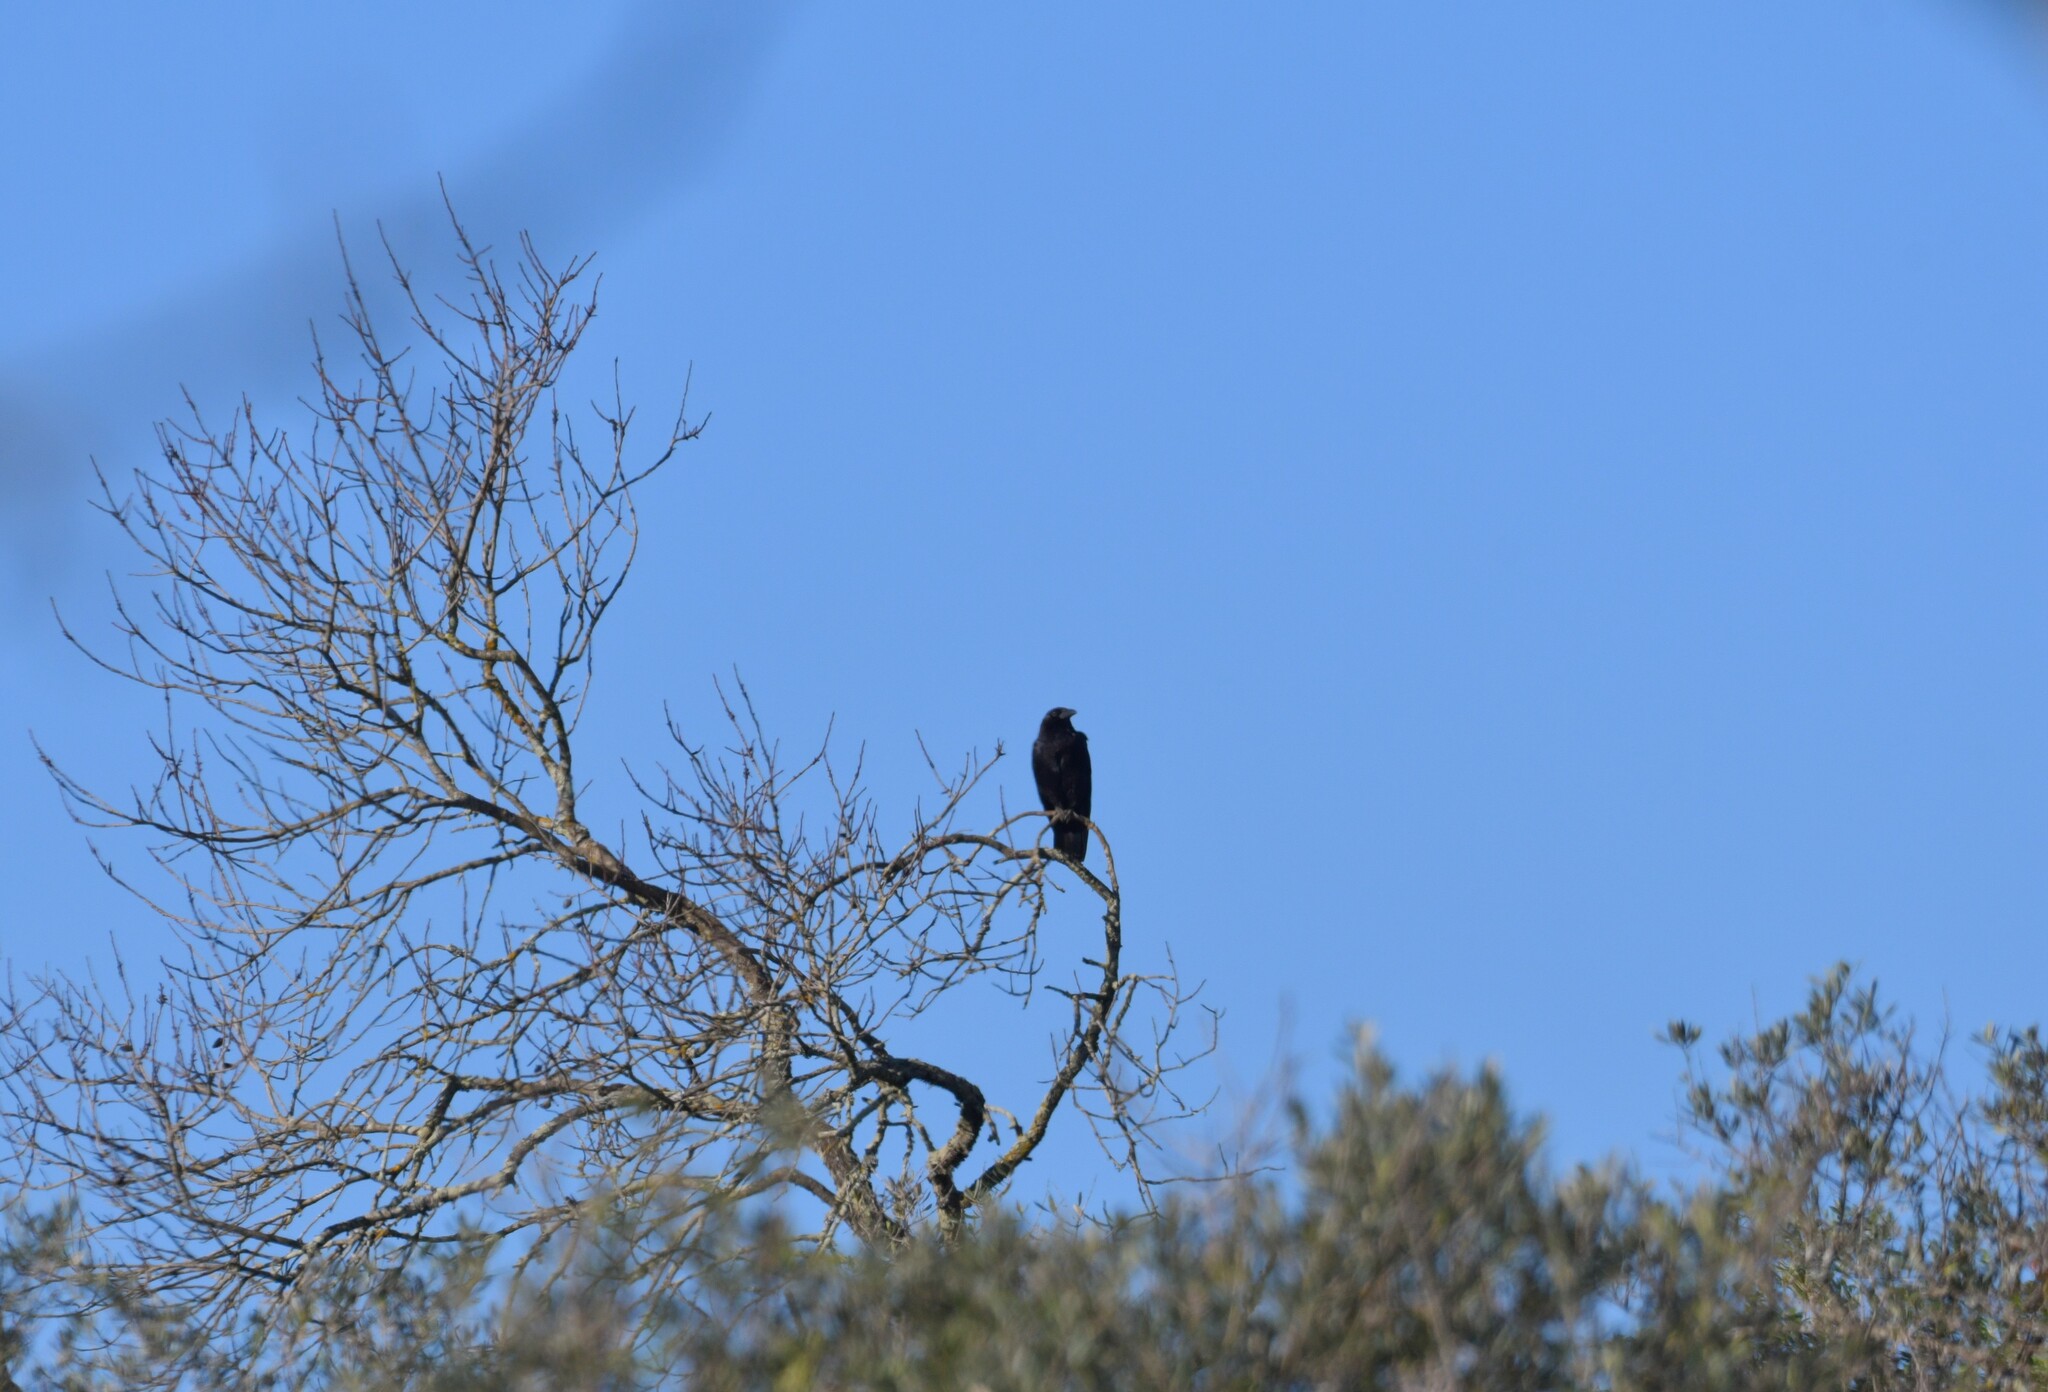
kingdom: Animalia
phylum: Chordata
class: Aves
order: Passeriformes
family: Corvidae
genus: Corvus
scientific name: Corvus corone
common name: Carrion crow
